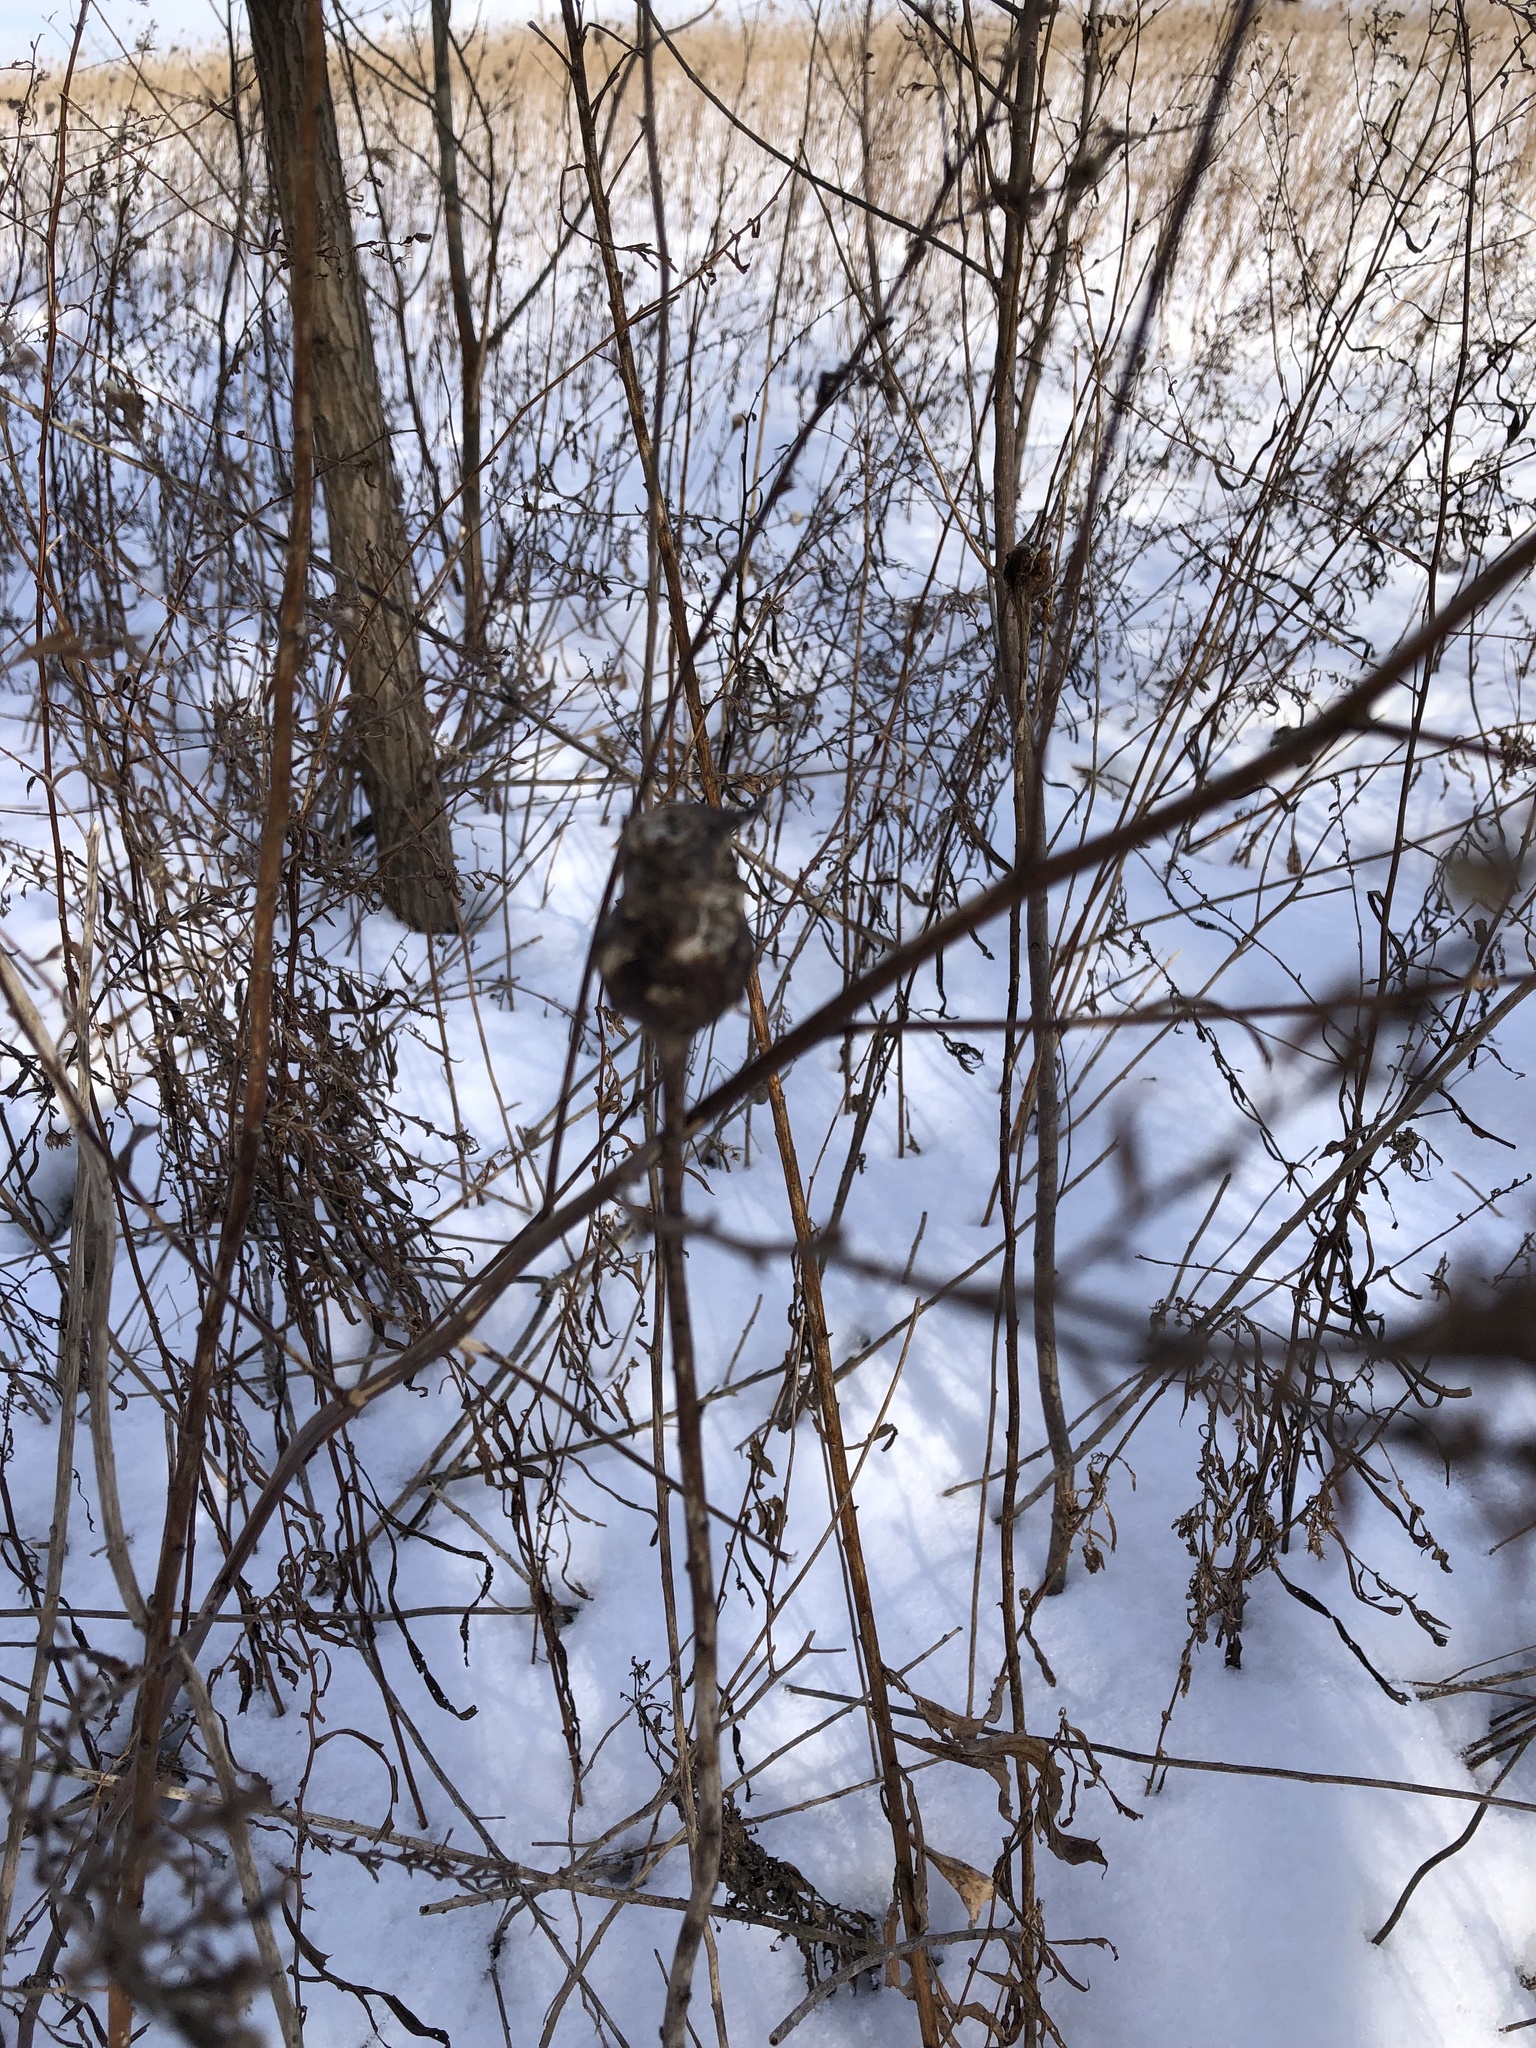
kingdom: Animalia
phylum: Arthropoda
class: Insecta
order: Diptera
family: Tephritidae
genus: Eurosta
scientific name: Eurosta solidaginis
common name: Goldenrod gall fly
